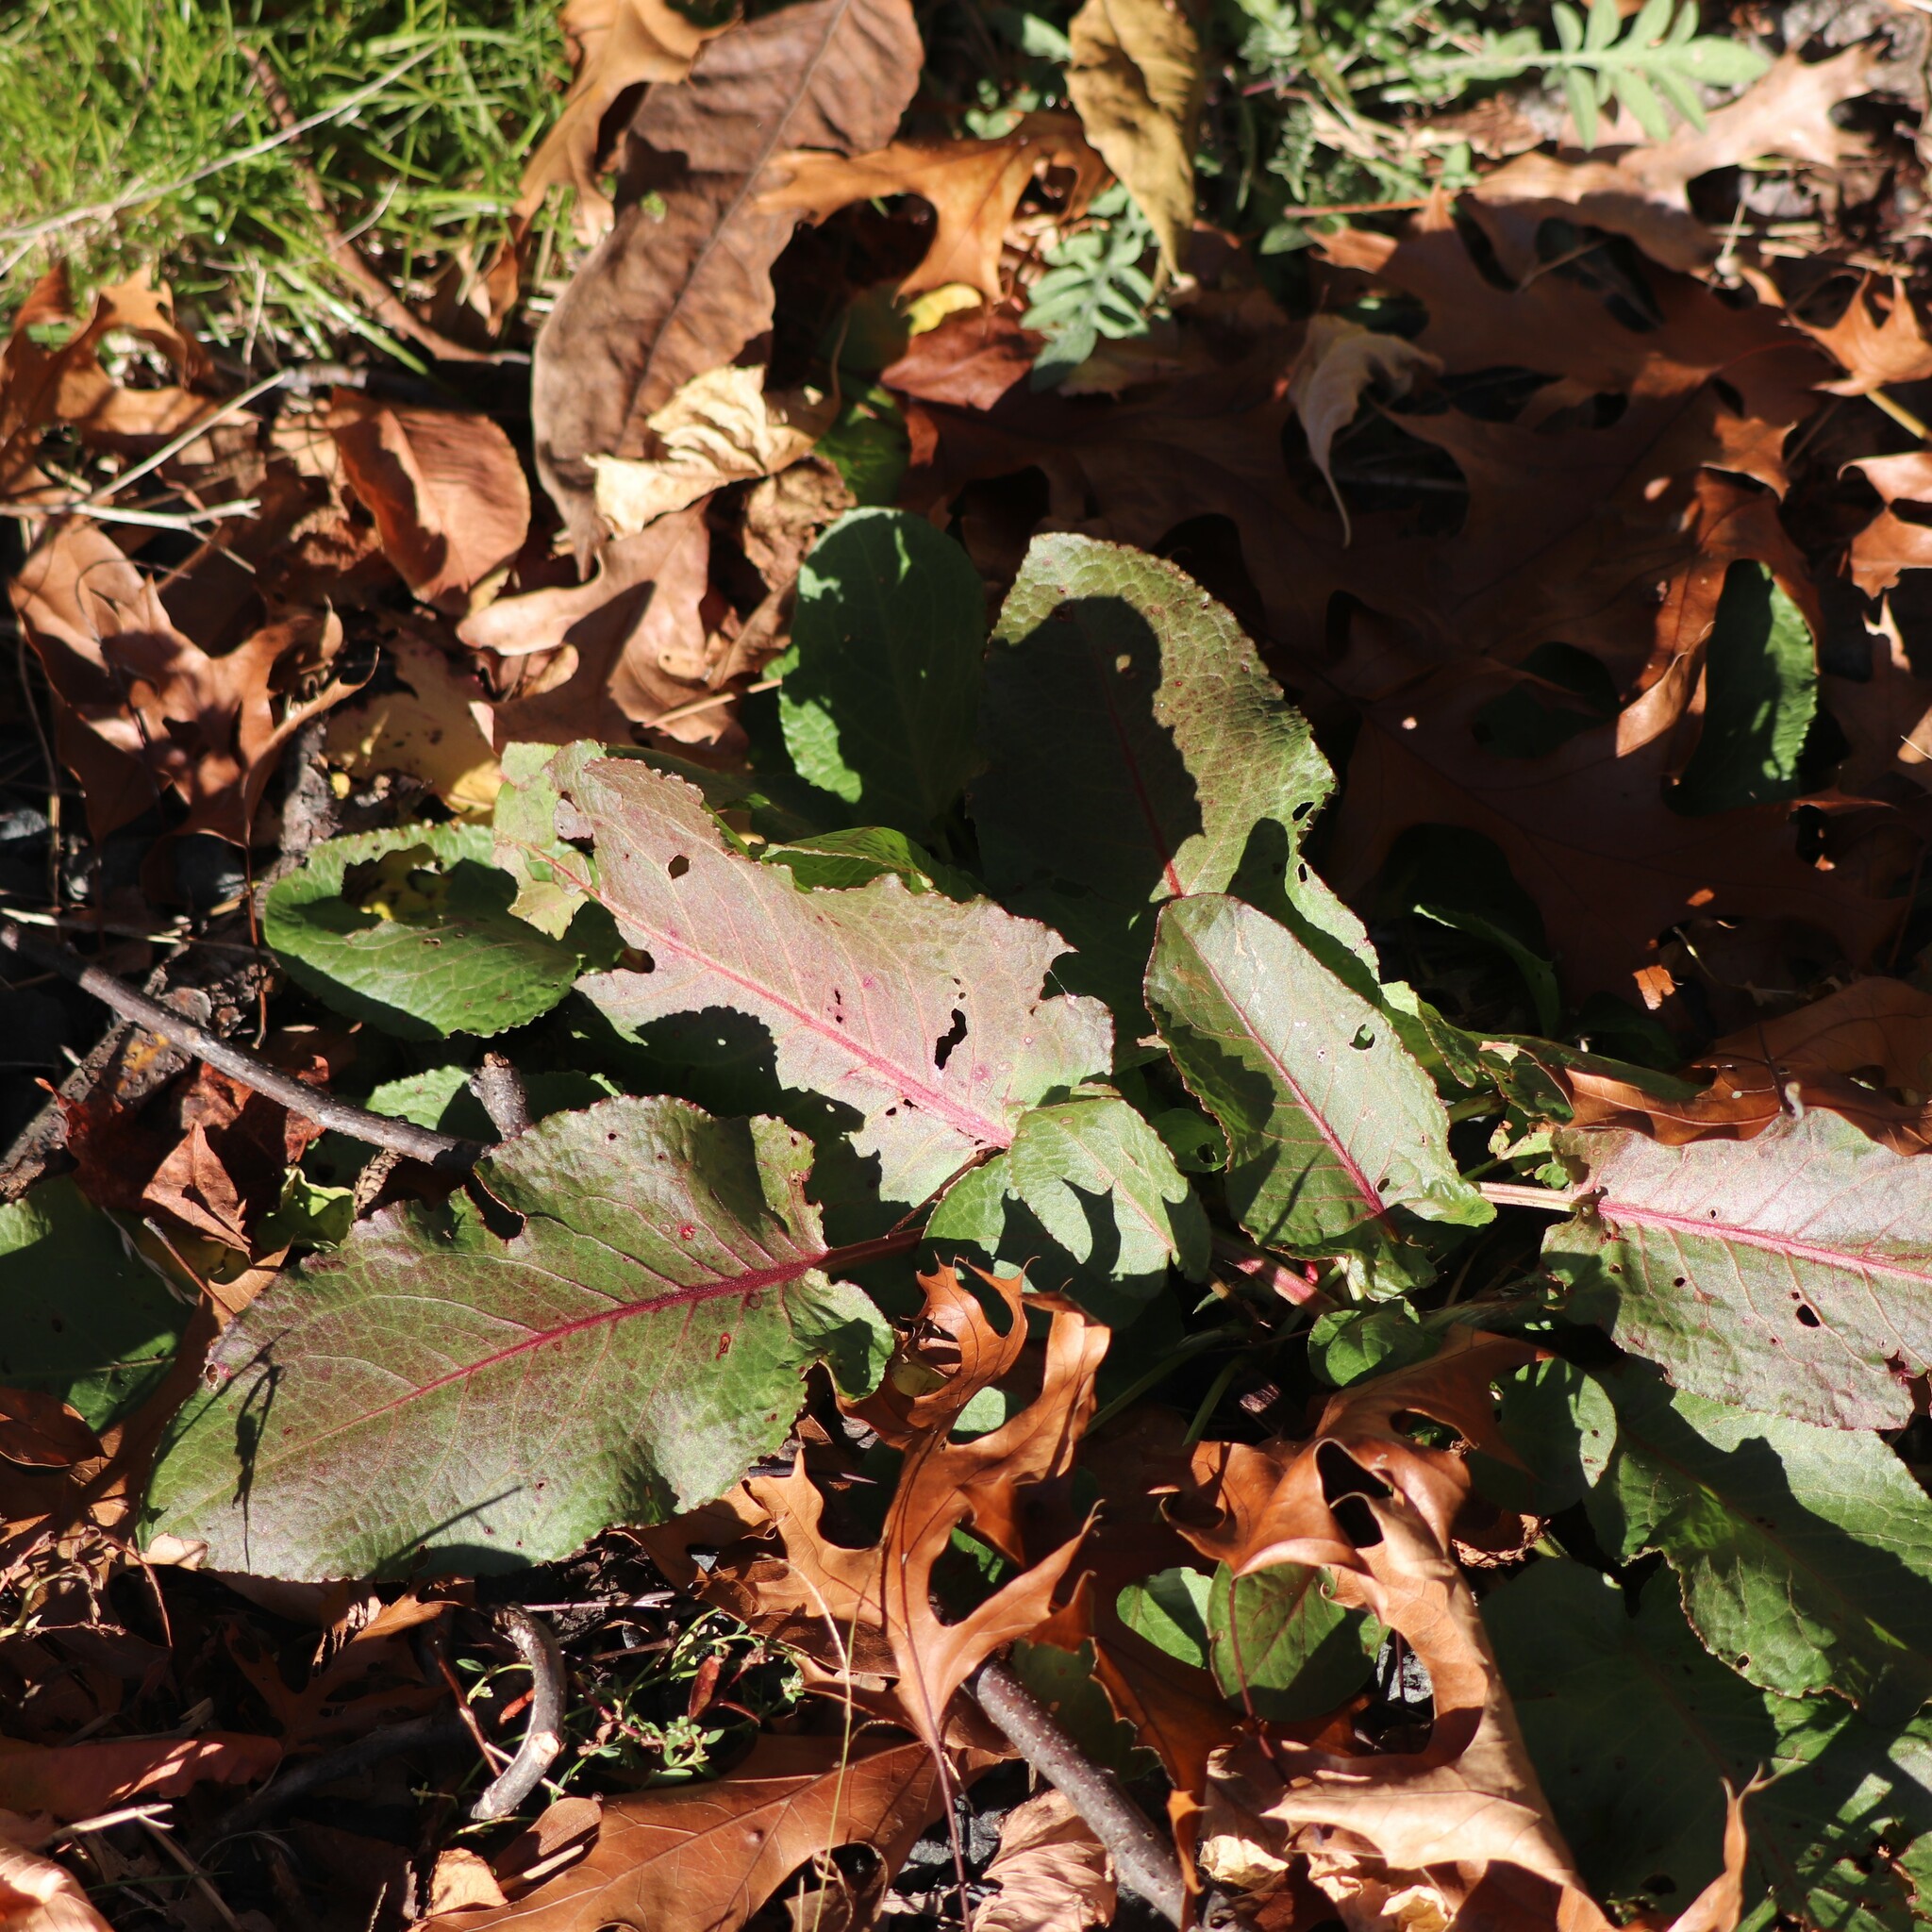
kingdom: Plantae
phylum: Tracheophyta
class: Magnoliopsida
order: Caryophyllales
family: Polygonaceae
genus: Rumex
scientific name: Rumex obtusifolius
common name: Bitter dock
